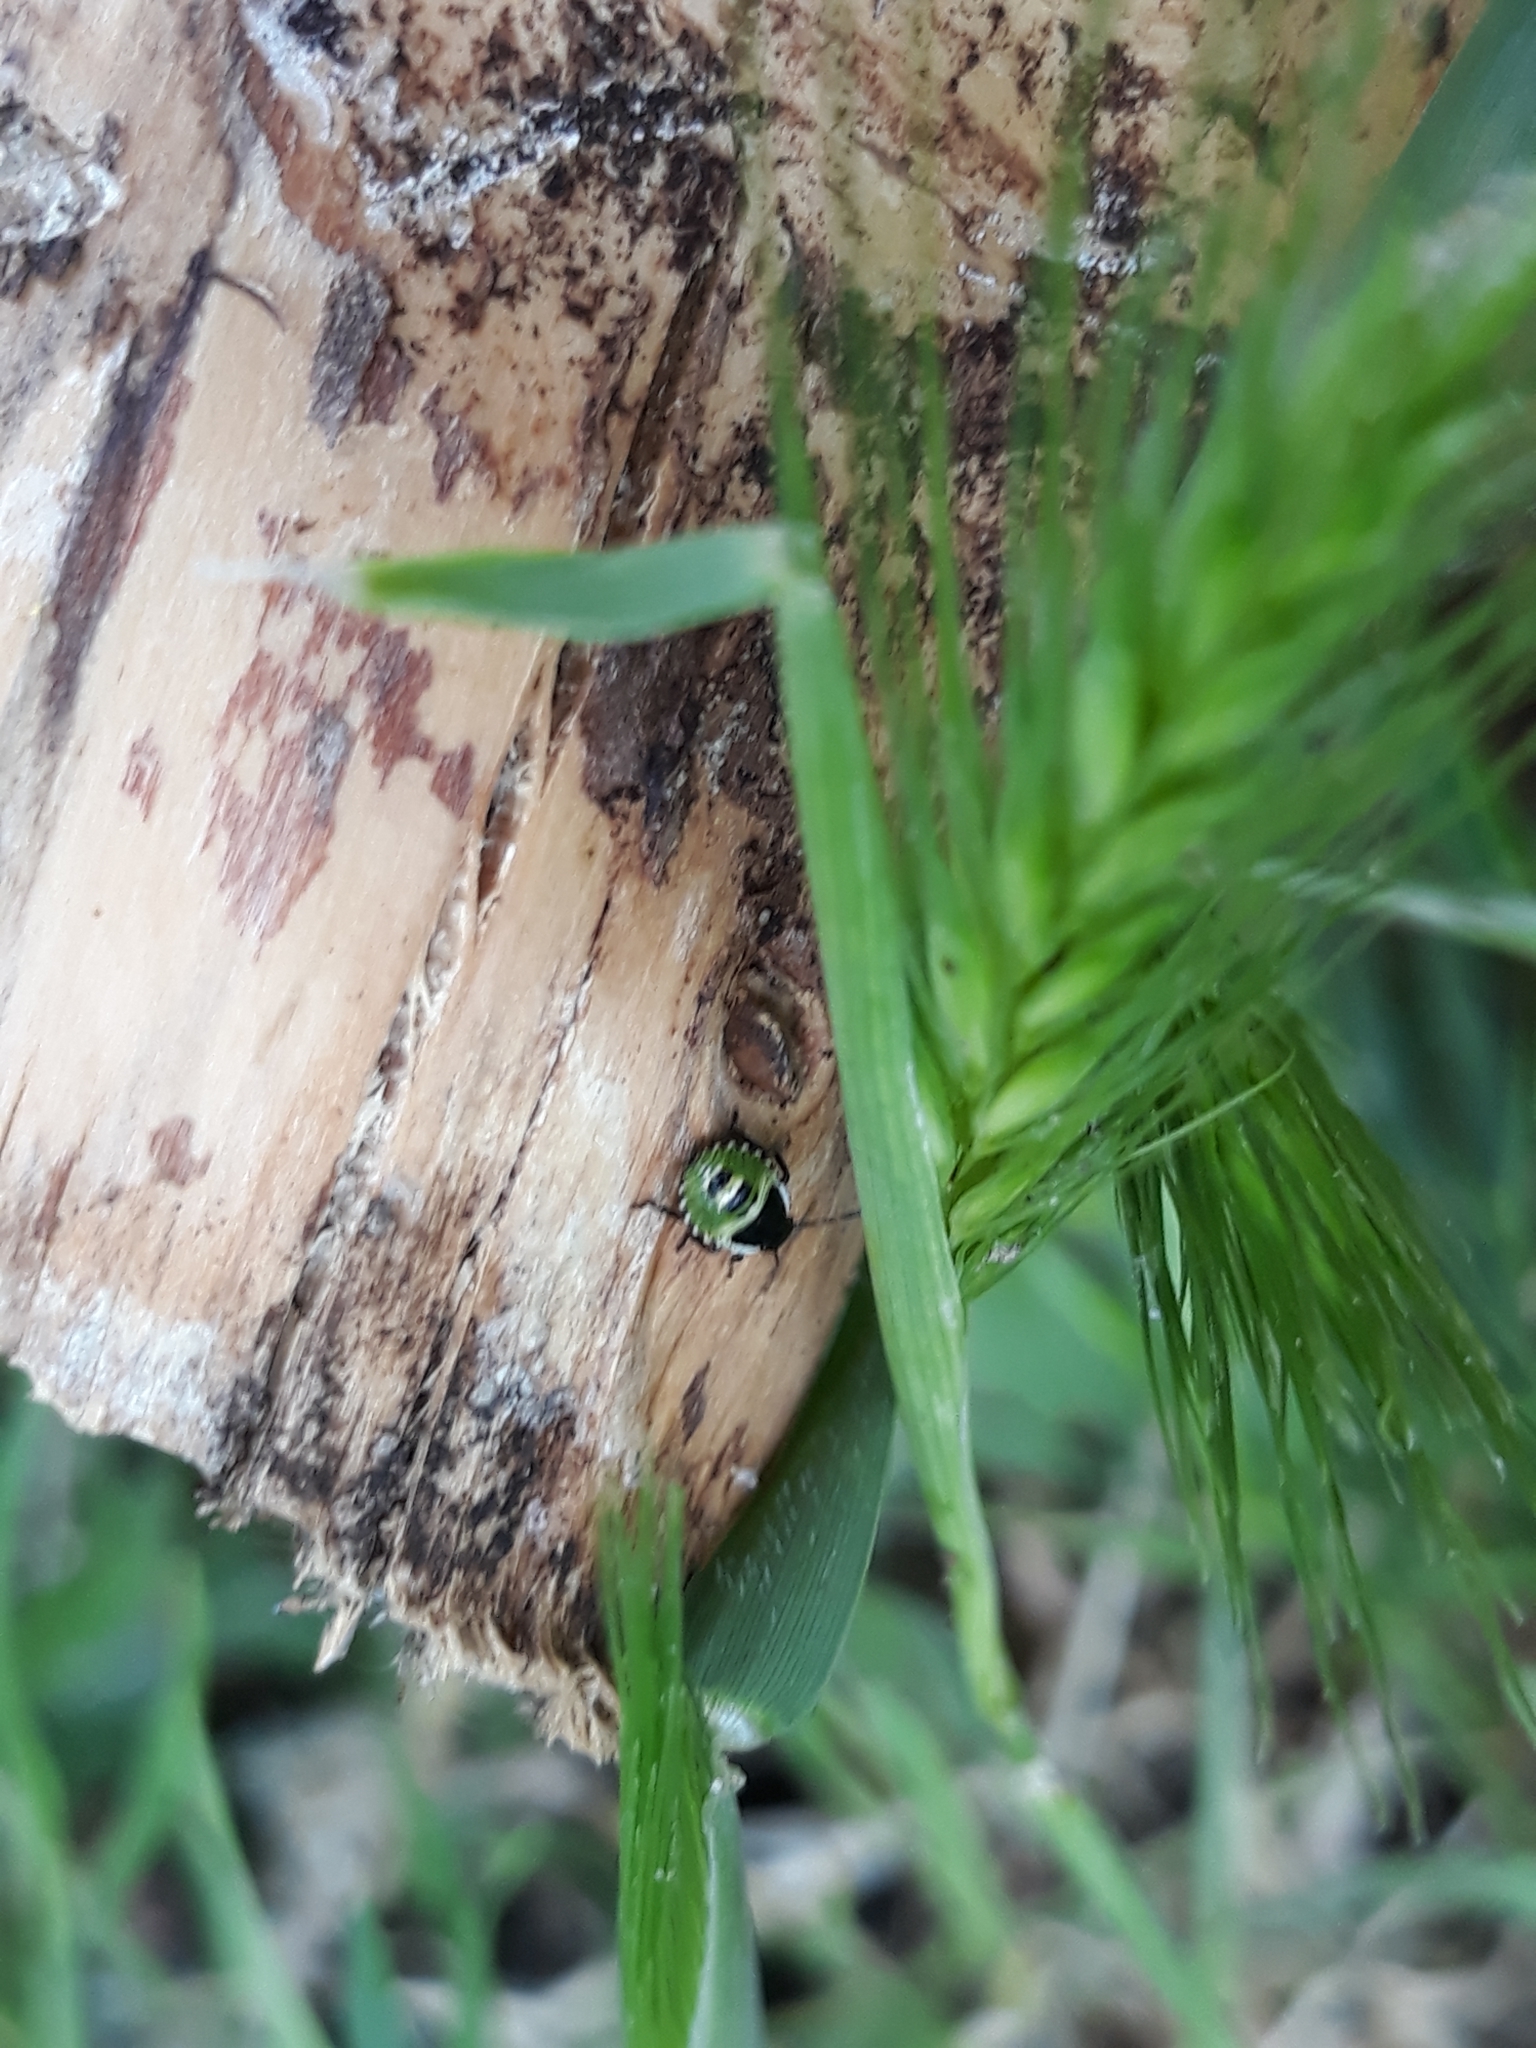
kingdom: Animalia
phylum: Arthropoda
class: Insecta
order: Hemiptera
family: Pentatomidae
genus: Palomena
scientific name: Palomena prasina
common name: Green shieldbug
